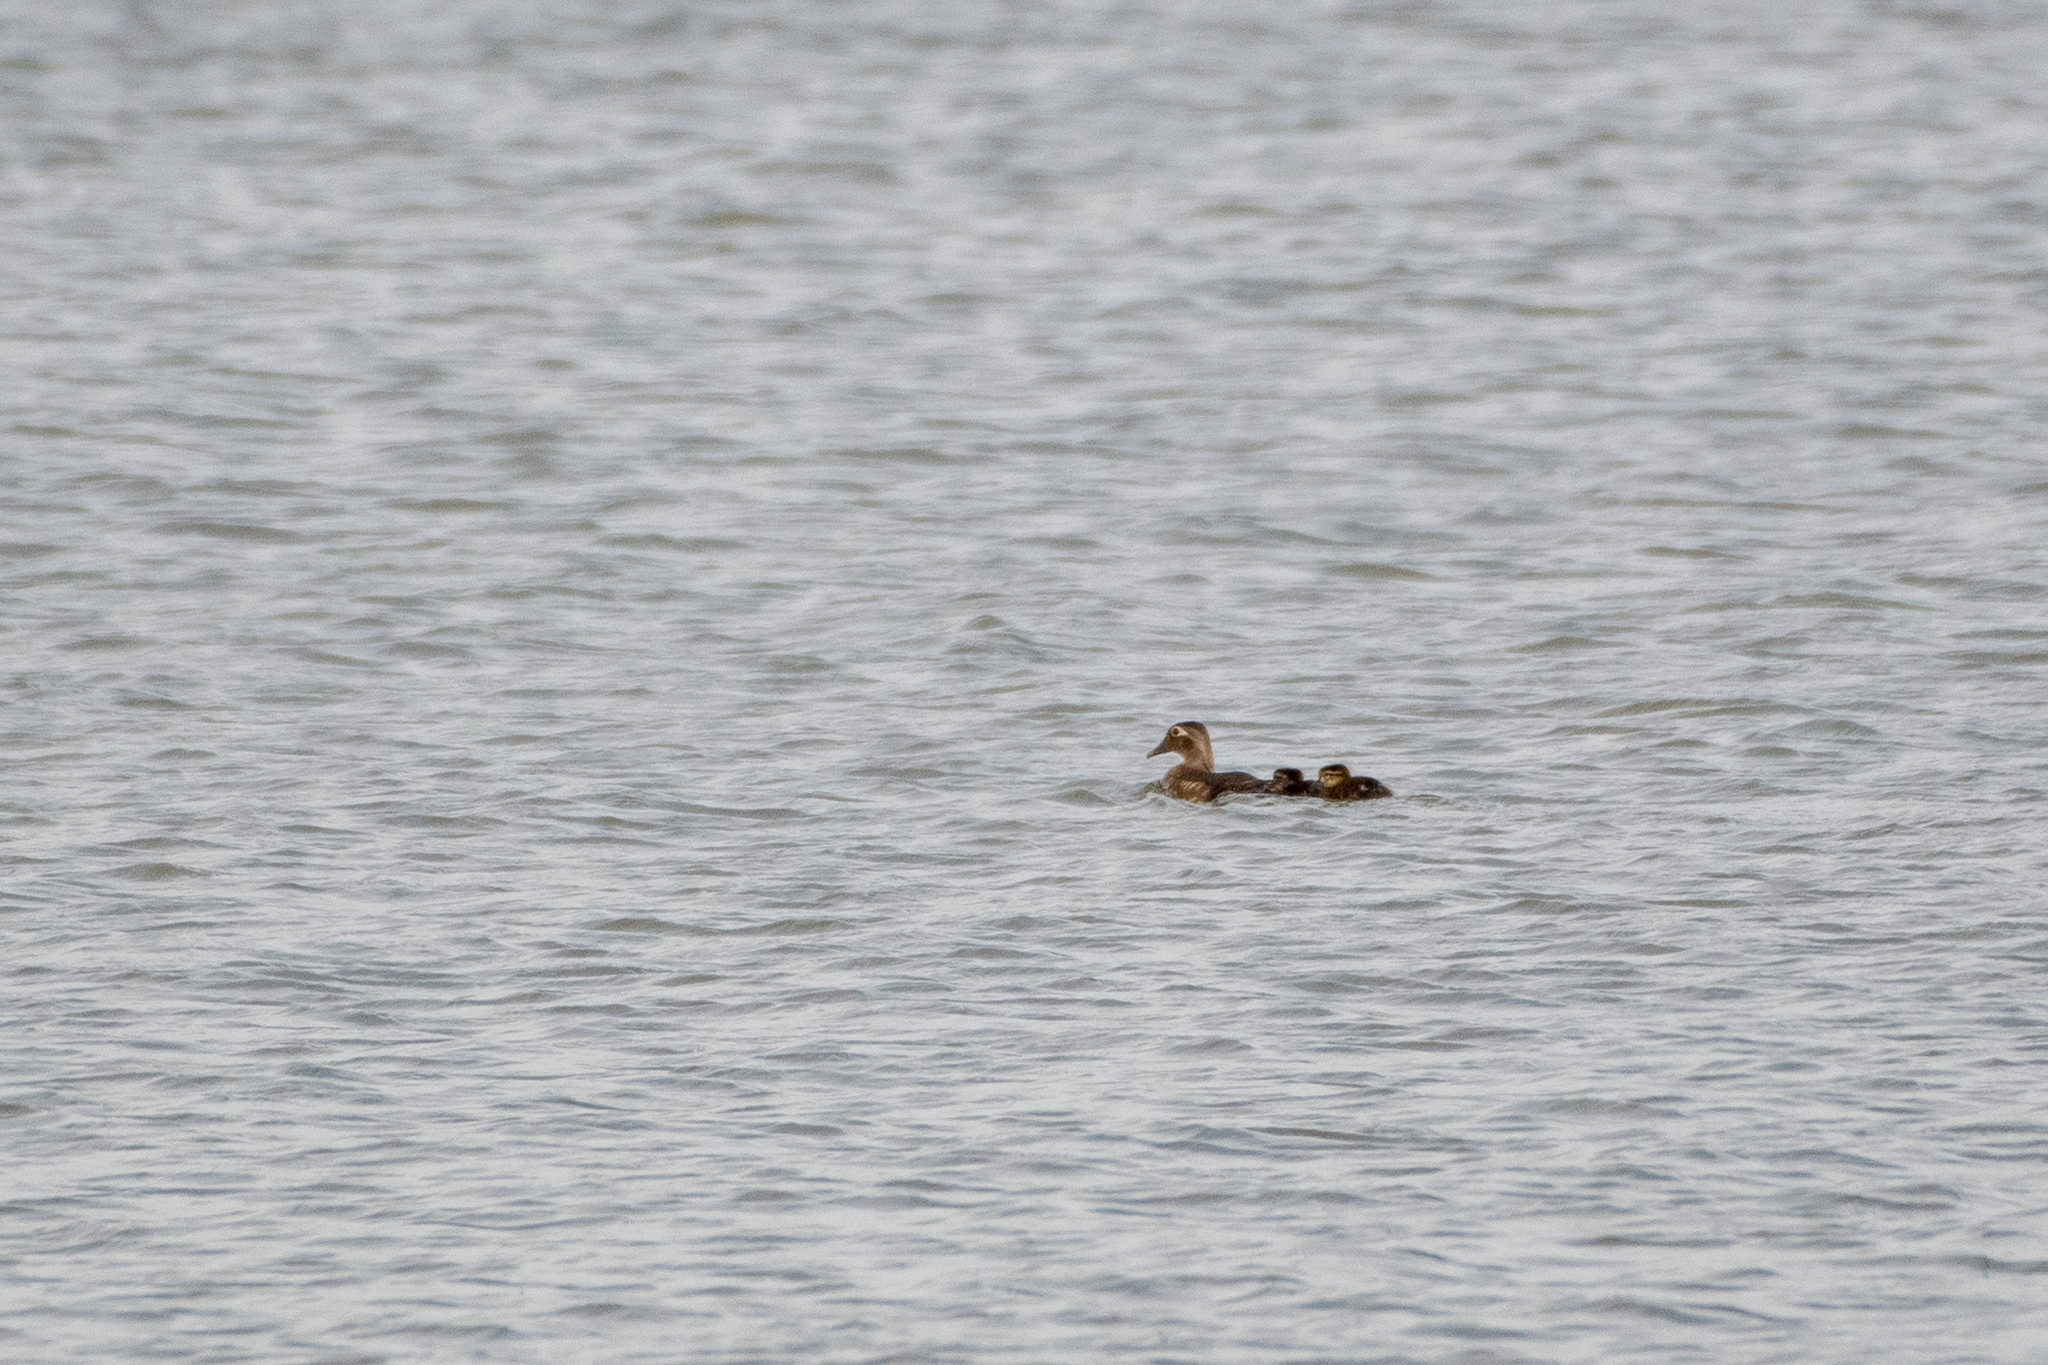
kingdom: Animalia
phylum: Chordata
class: Aves
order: Anseriformes
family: Anatidae
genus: Aix
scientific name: Aix sponsa
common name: Wood duck
